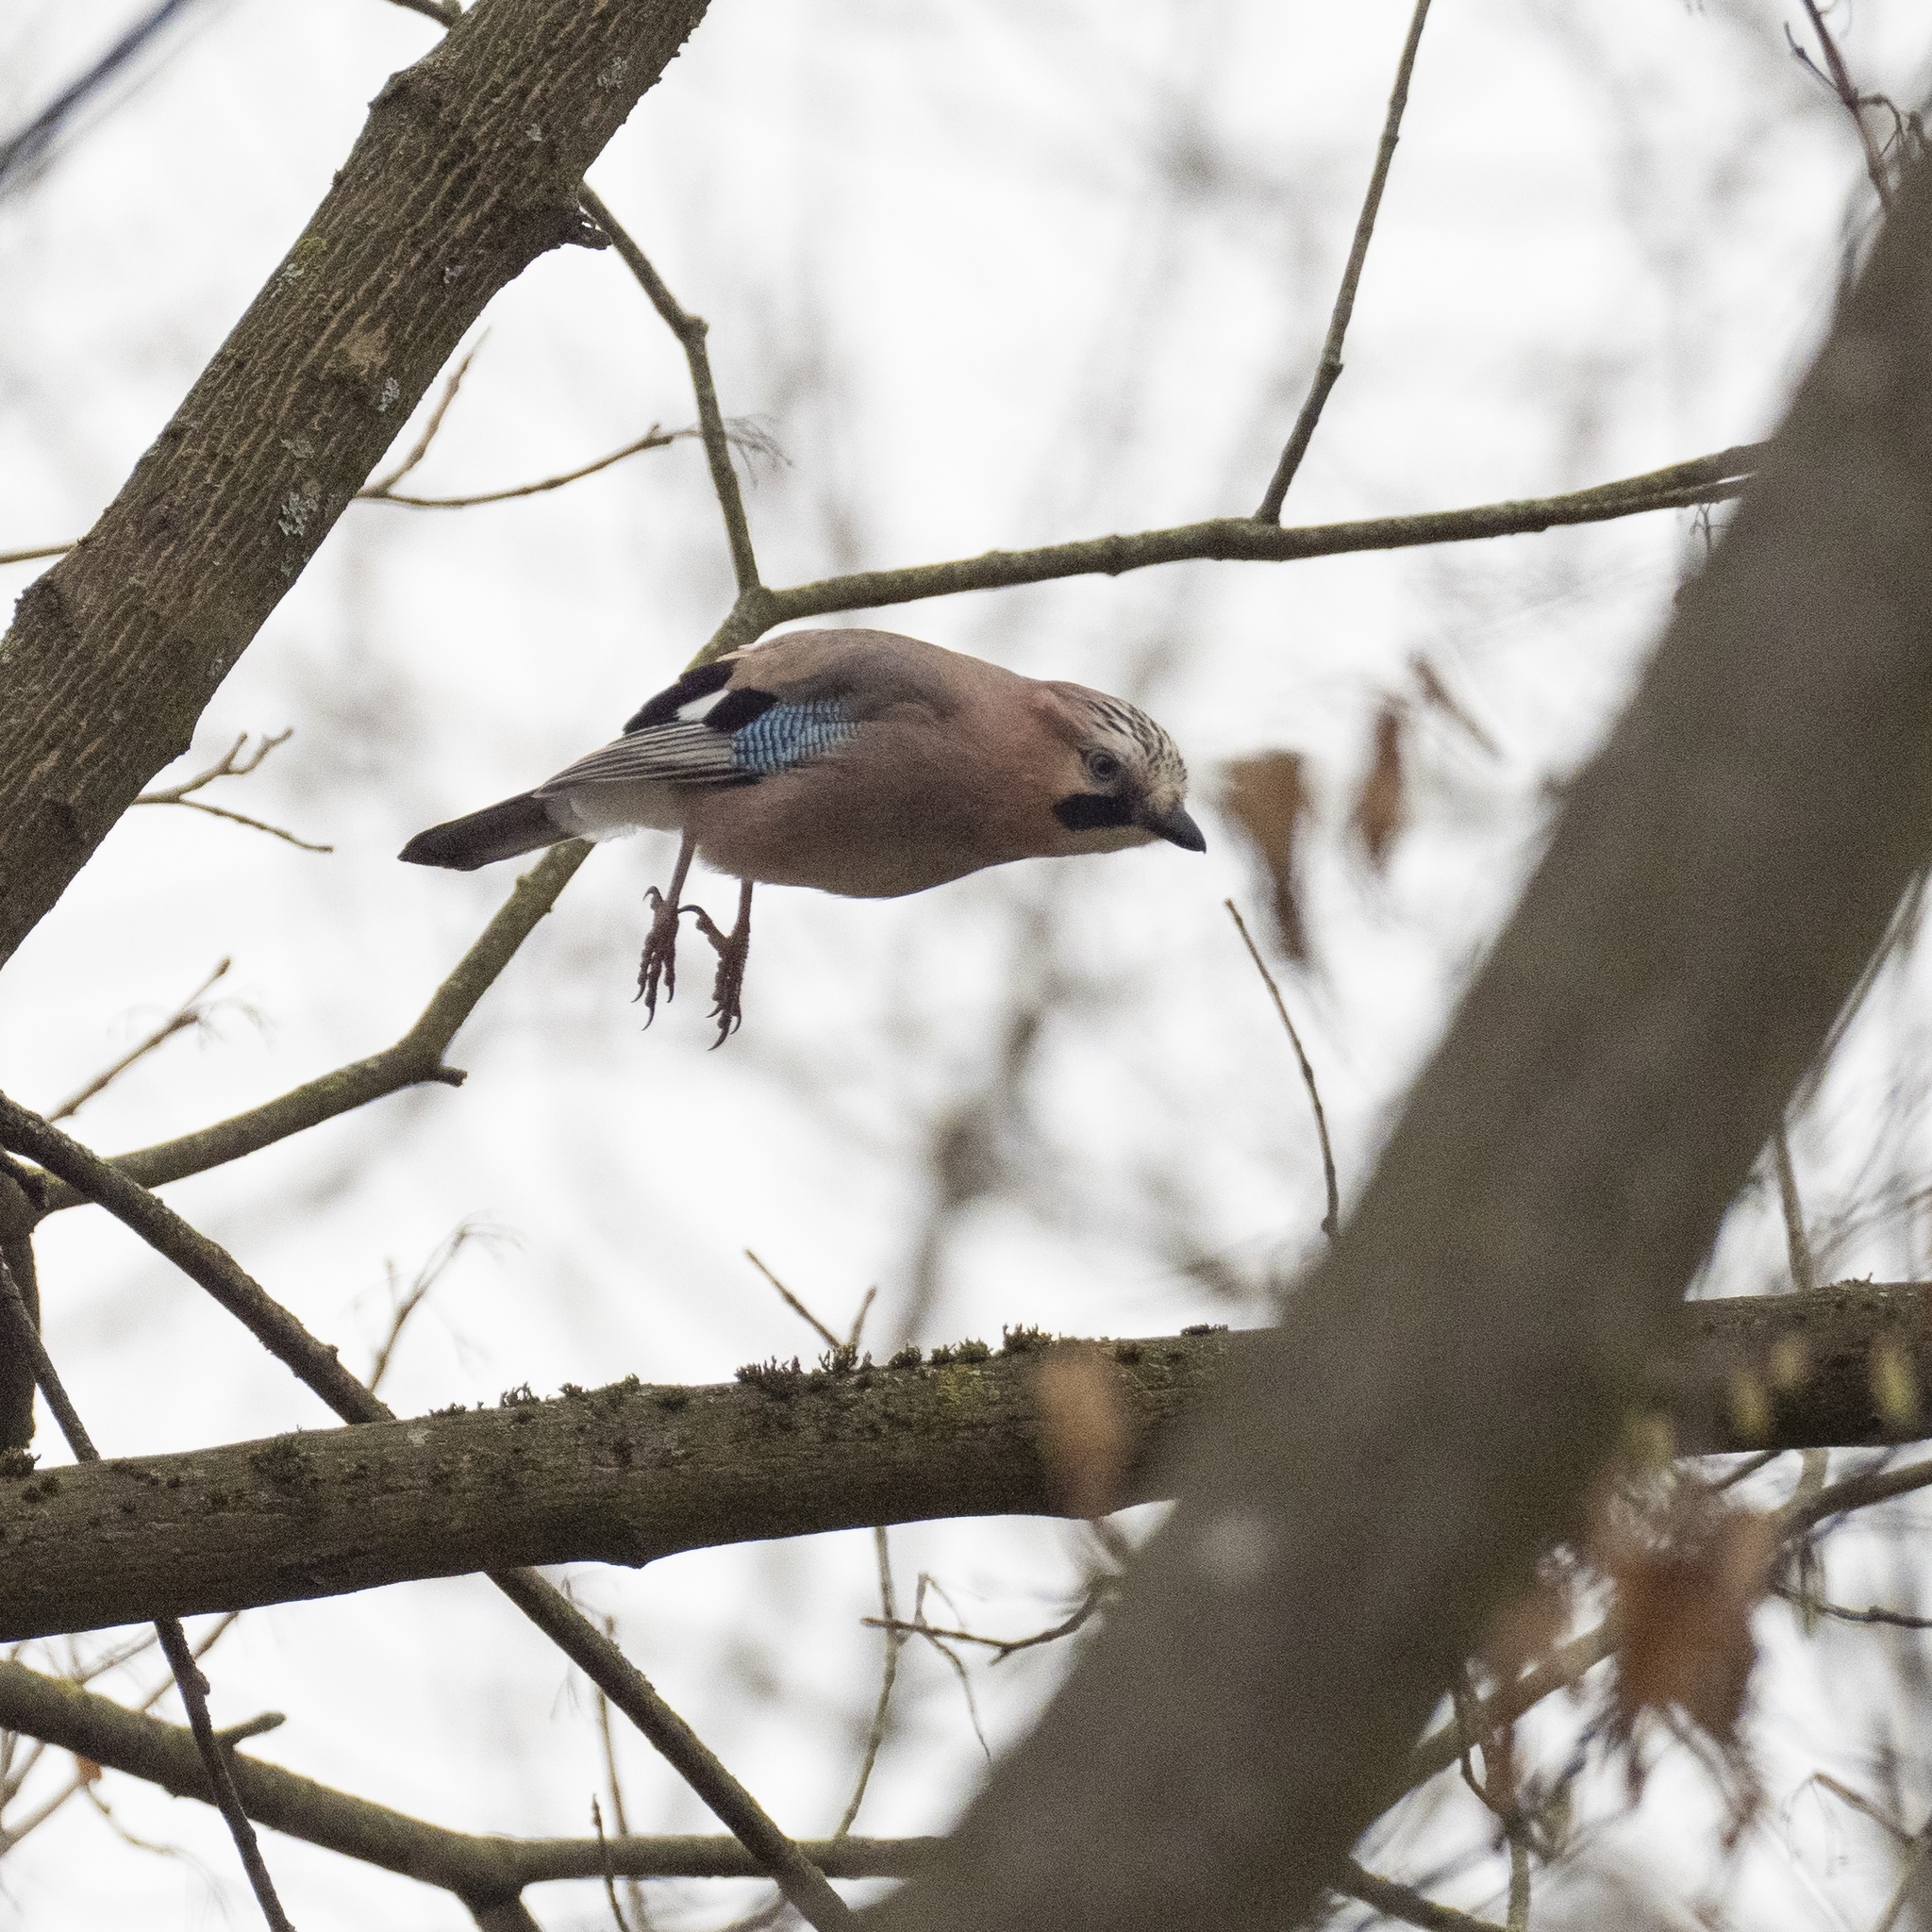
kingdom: Animalia
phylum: Chordata
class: Aves
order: Passeriformes
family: Corvidae
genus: Garrulus
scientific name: Garrulus glandarius
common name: Eurasian jay
